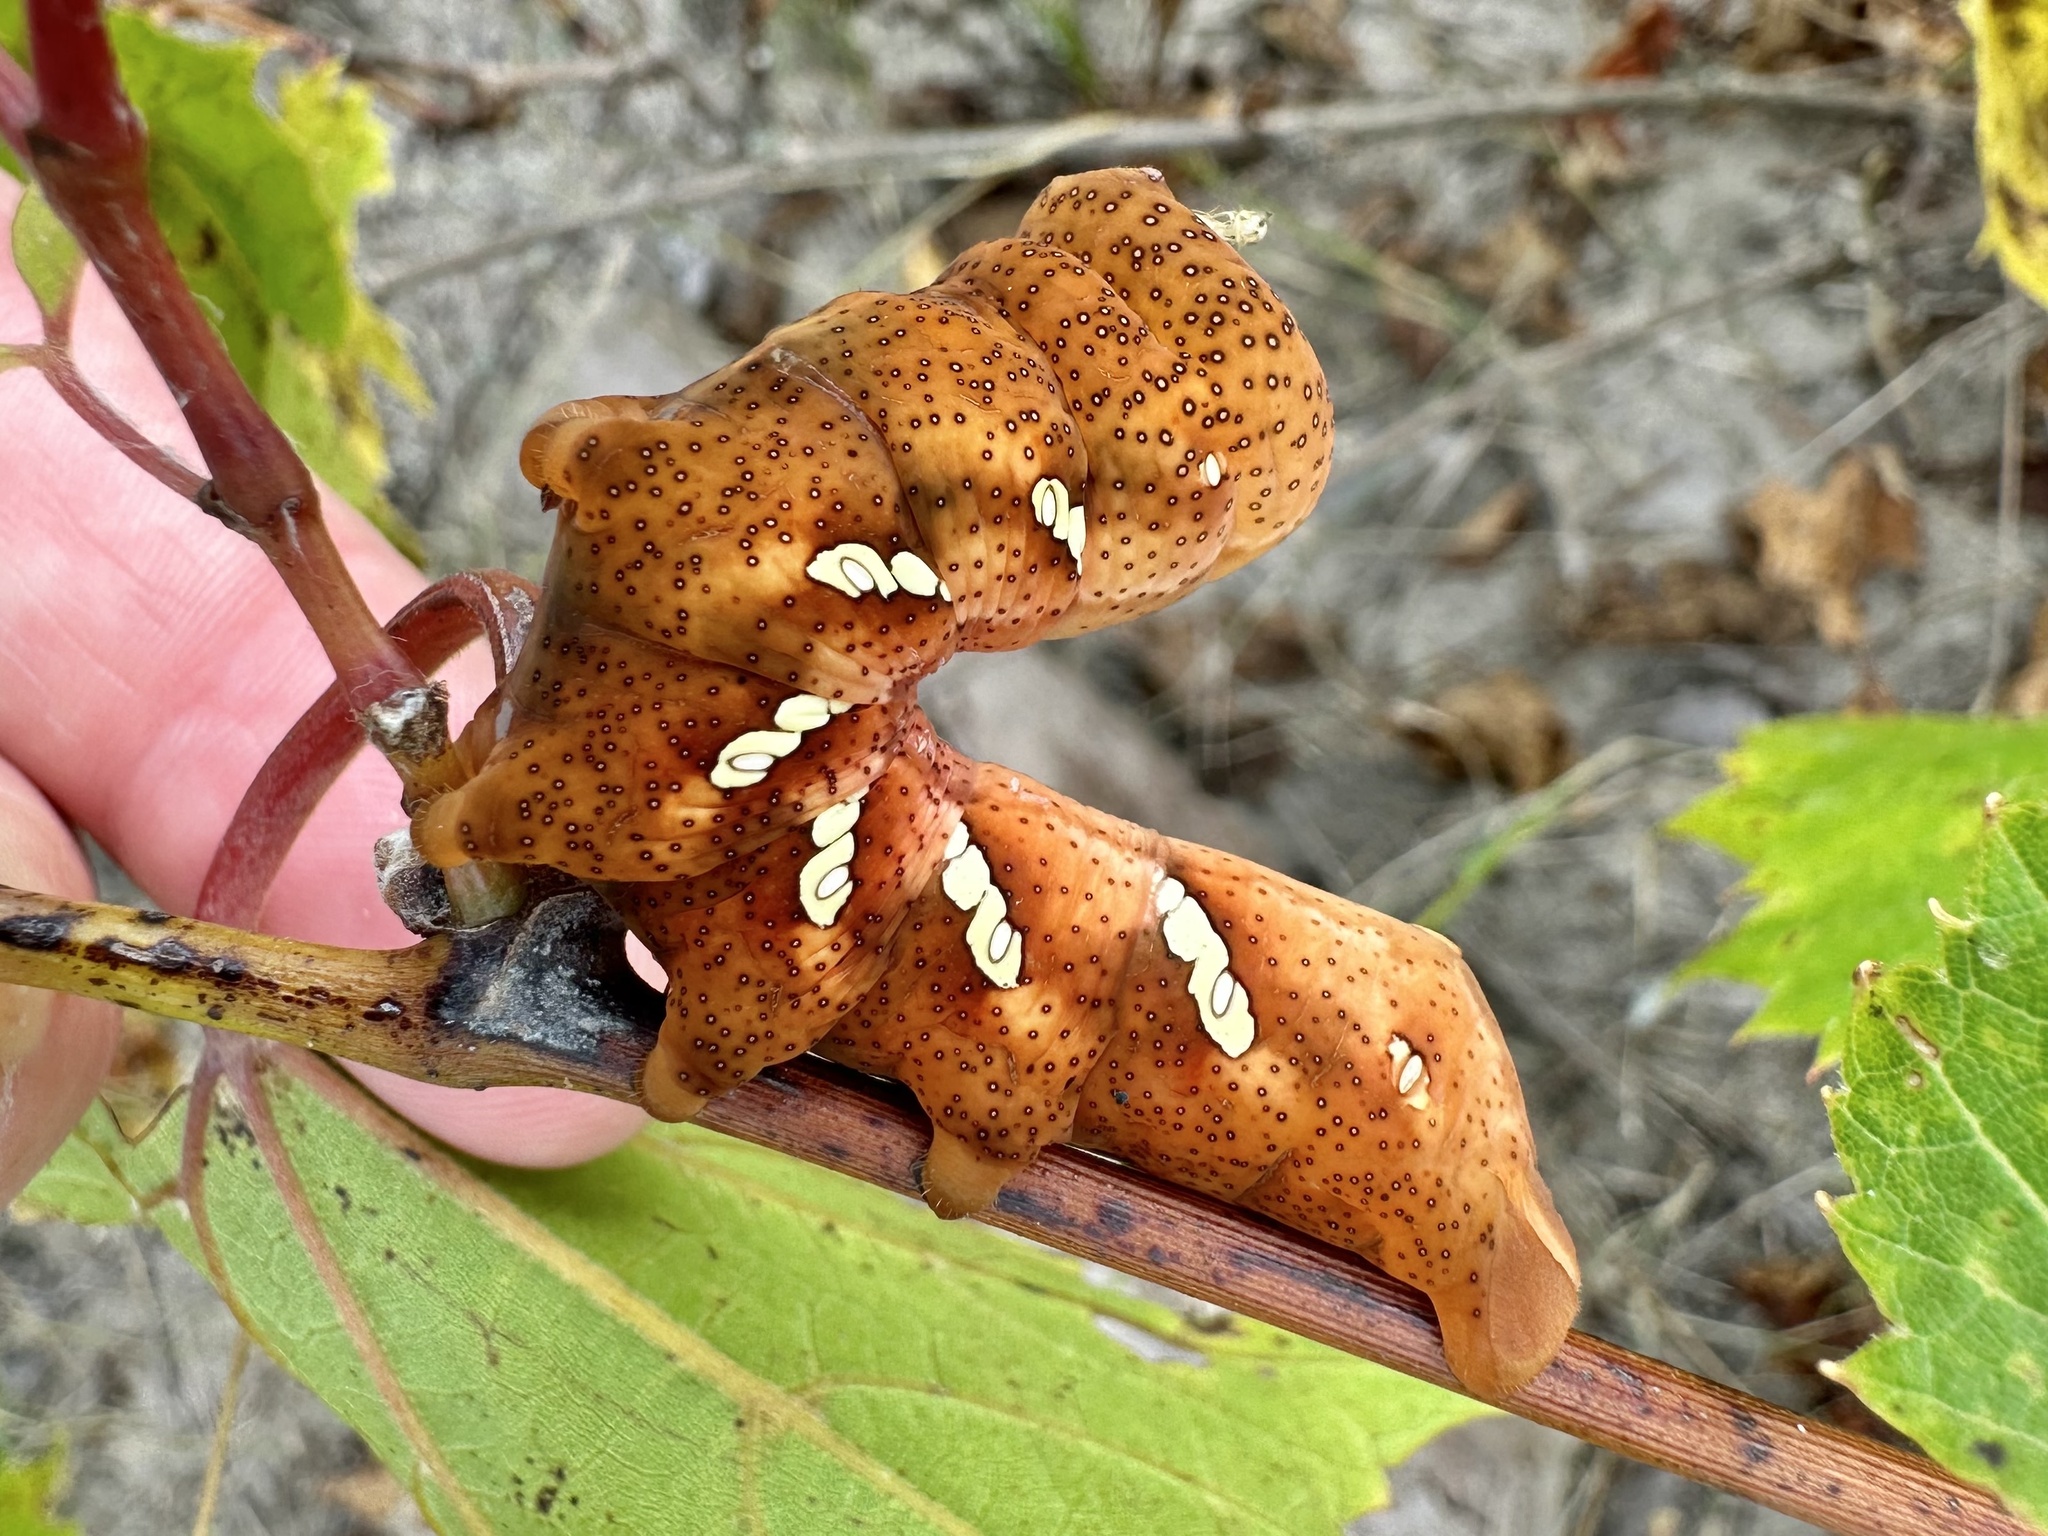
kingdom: Animalia
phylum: Arthropoda
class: Insecta
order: Lepidoptera
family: Sphingidae
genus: Eumorpha
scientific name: Eumorpha achemon
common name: Achemon sphinx
